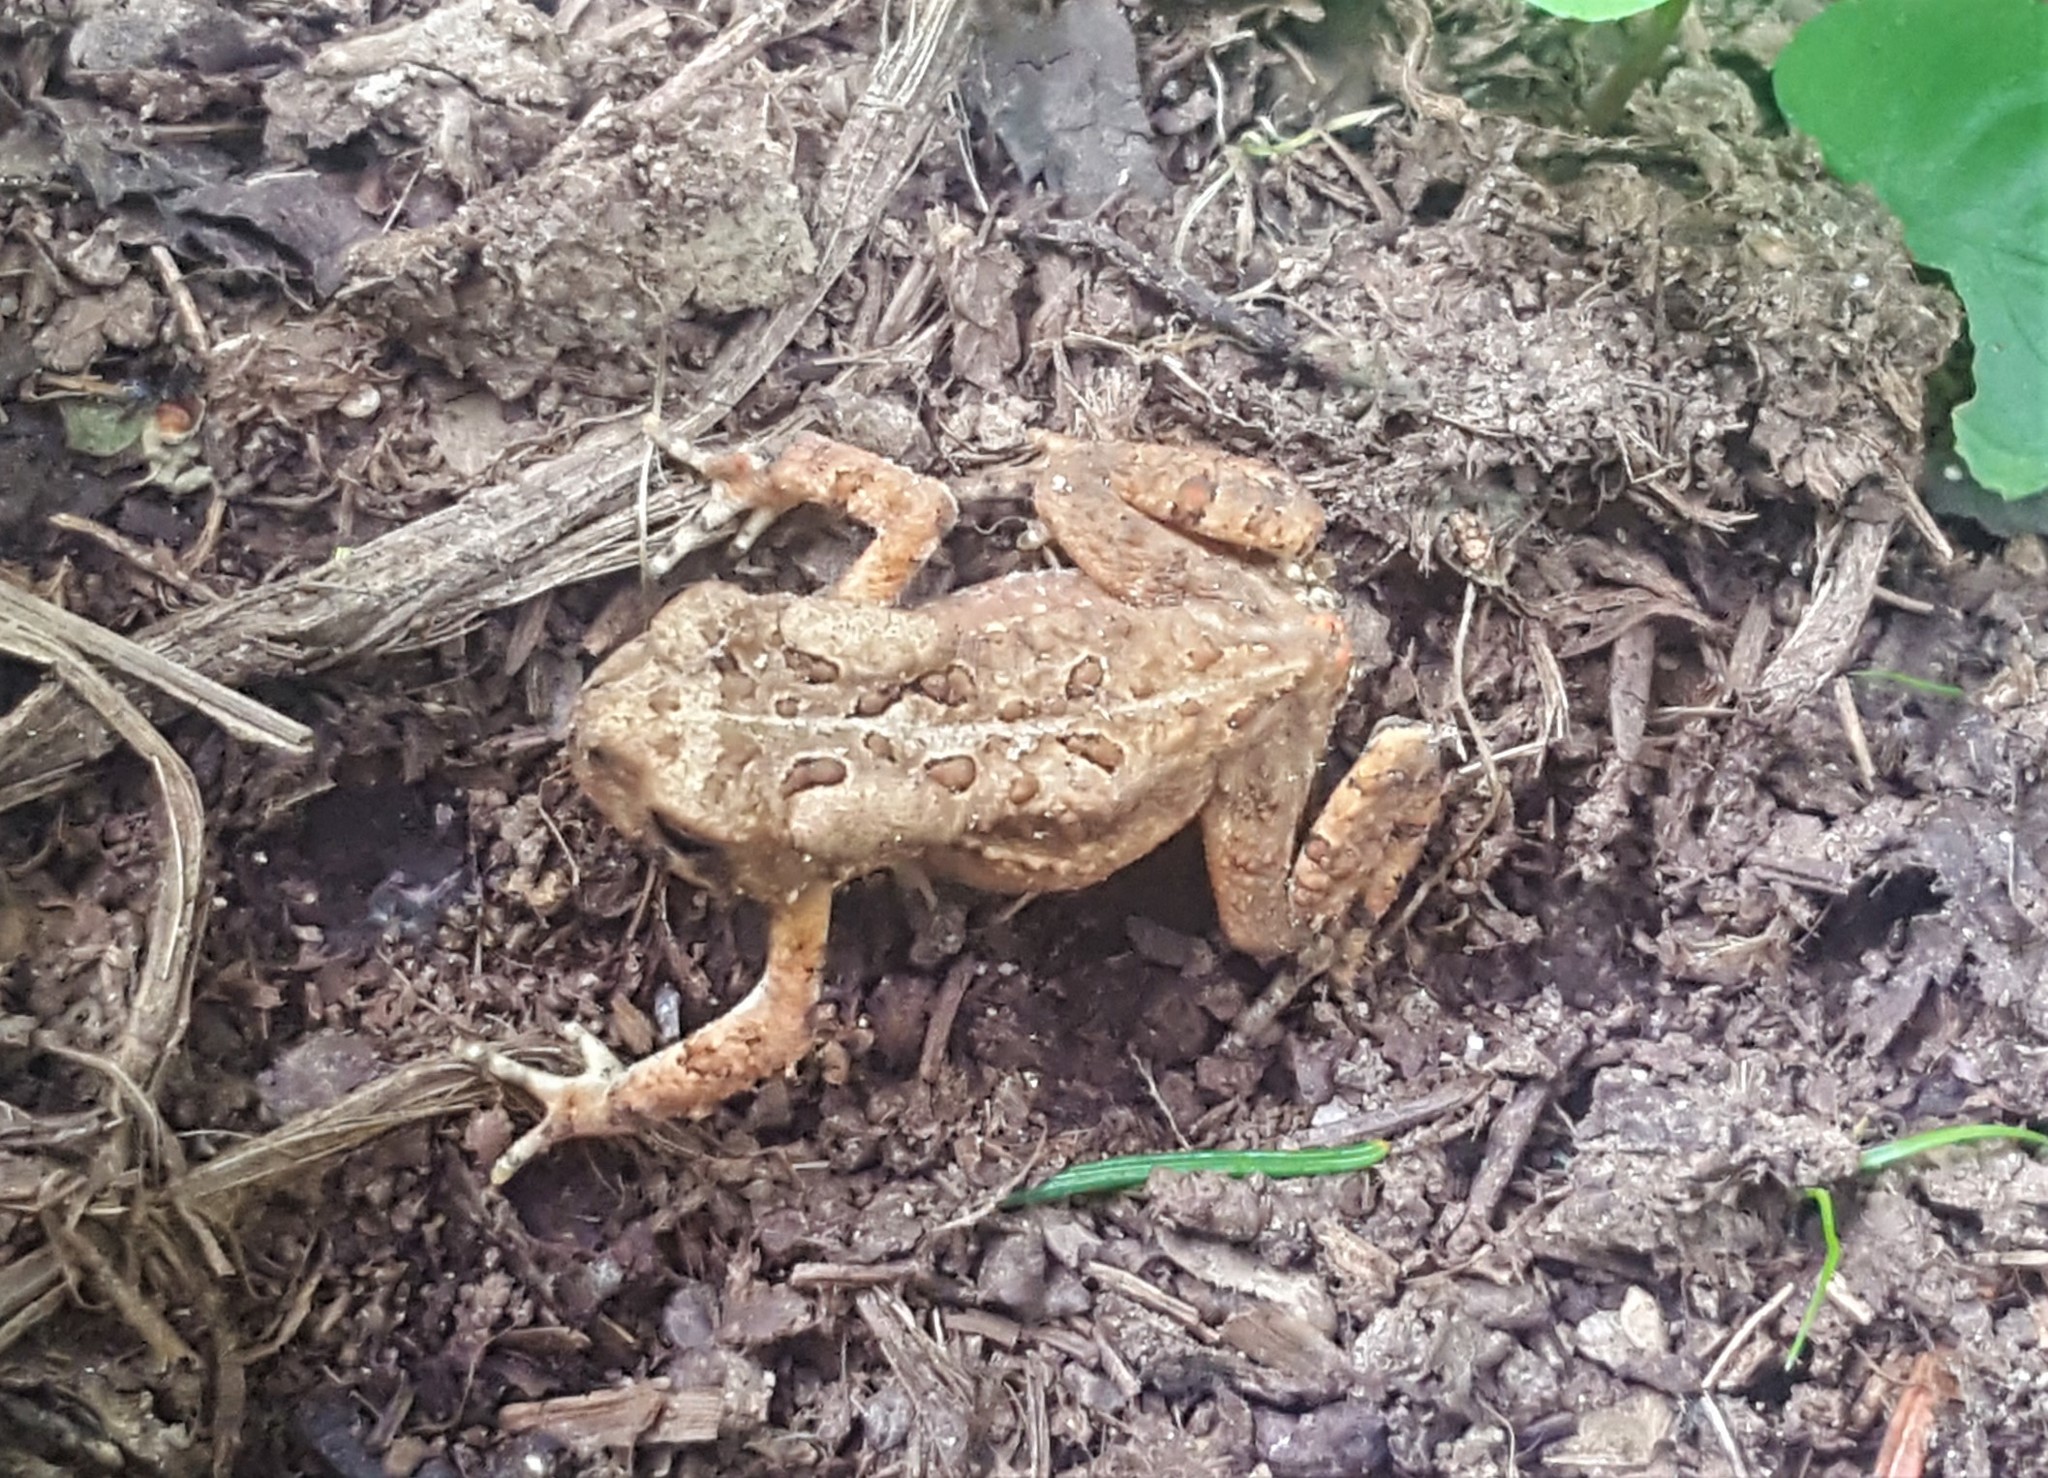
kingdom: Animalia
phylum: Chordata
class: Amphibia
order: Anura
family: Bufonidae
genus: Anaxyrus
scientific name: Anaxyrus americanus
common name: American toad
